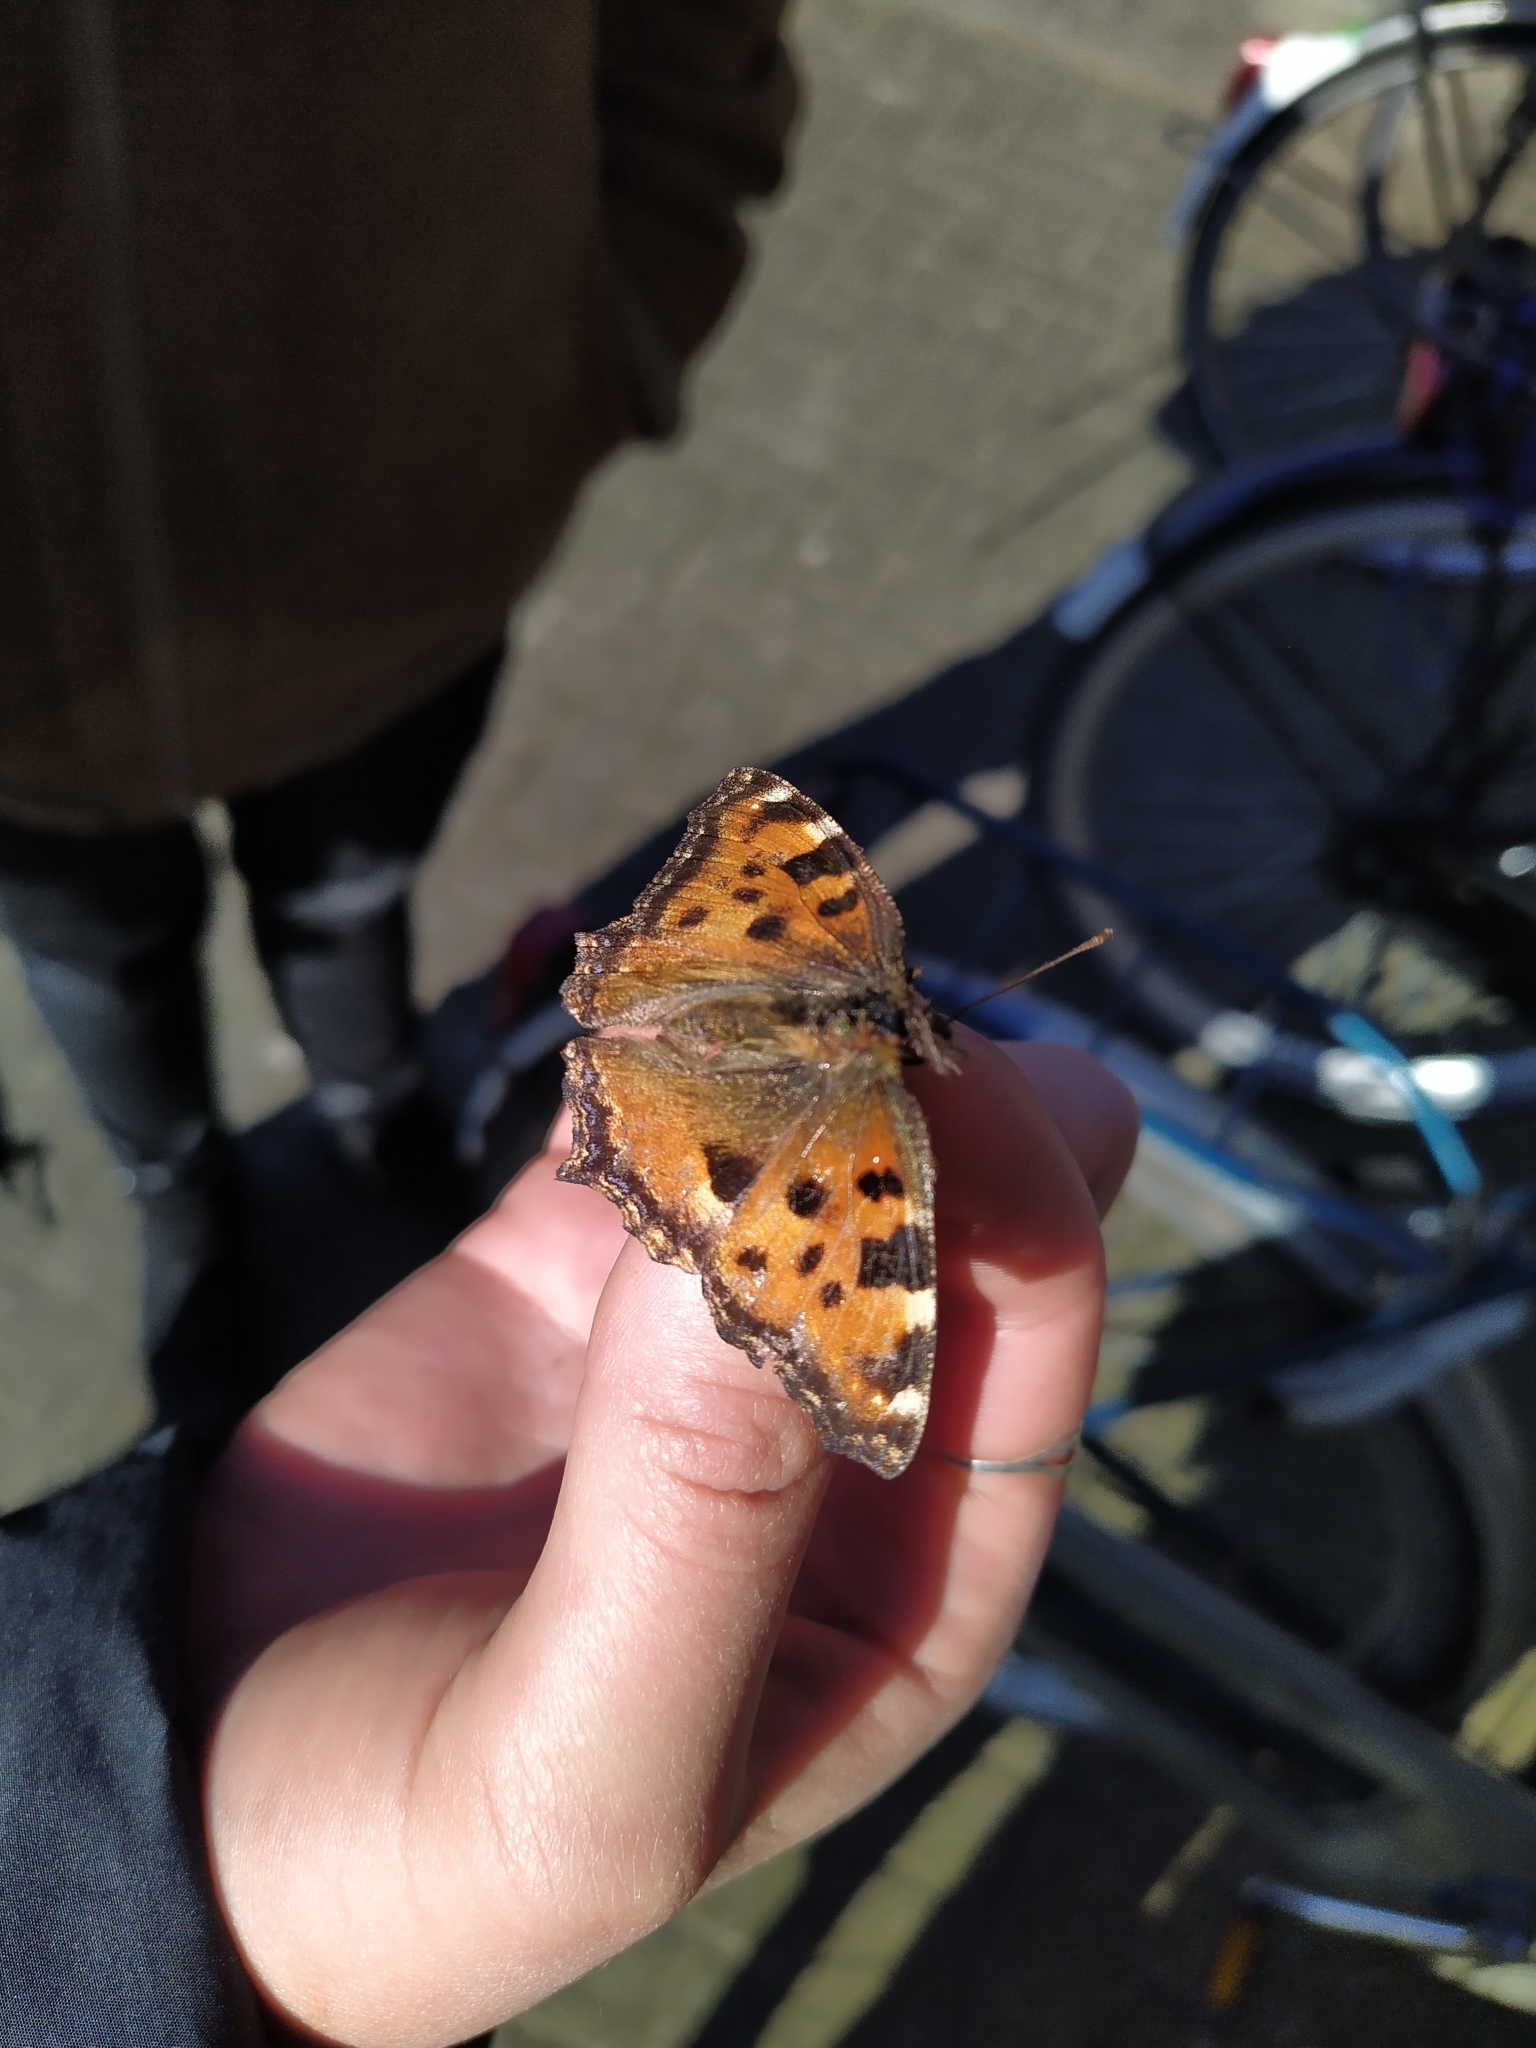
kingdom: Animalia
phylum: Arthropoda
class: Insecta
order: Lepidoptera
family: Nymphalidae
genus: Nymphalis
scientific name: Nymphalis polychloros
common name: Large tortoiseshell
